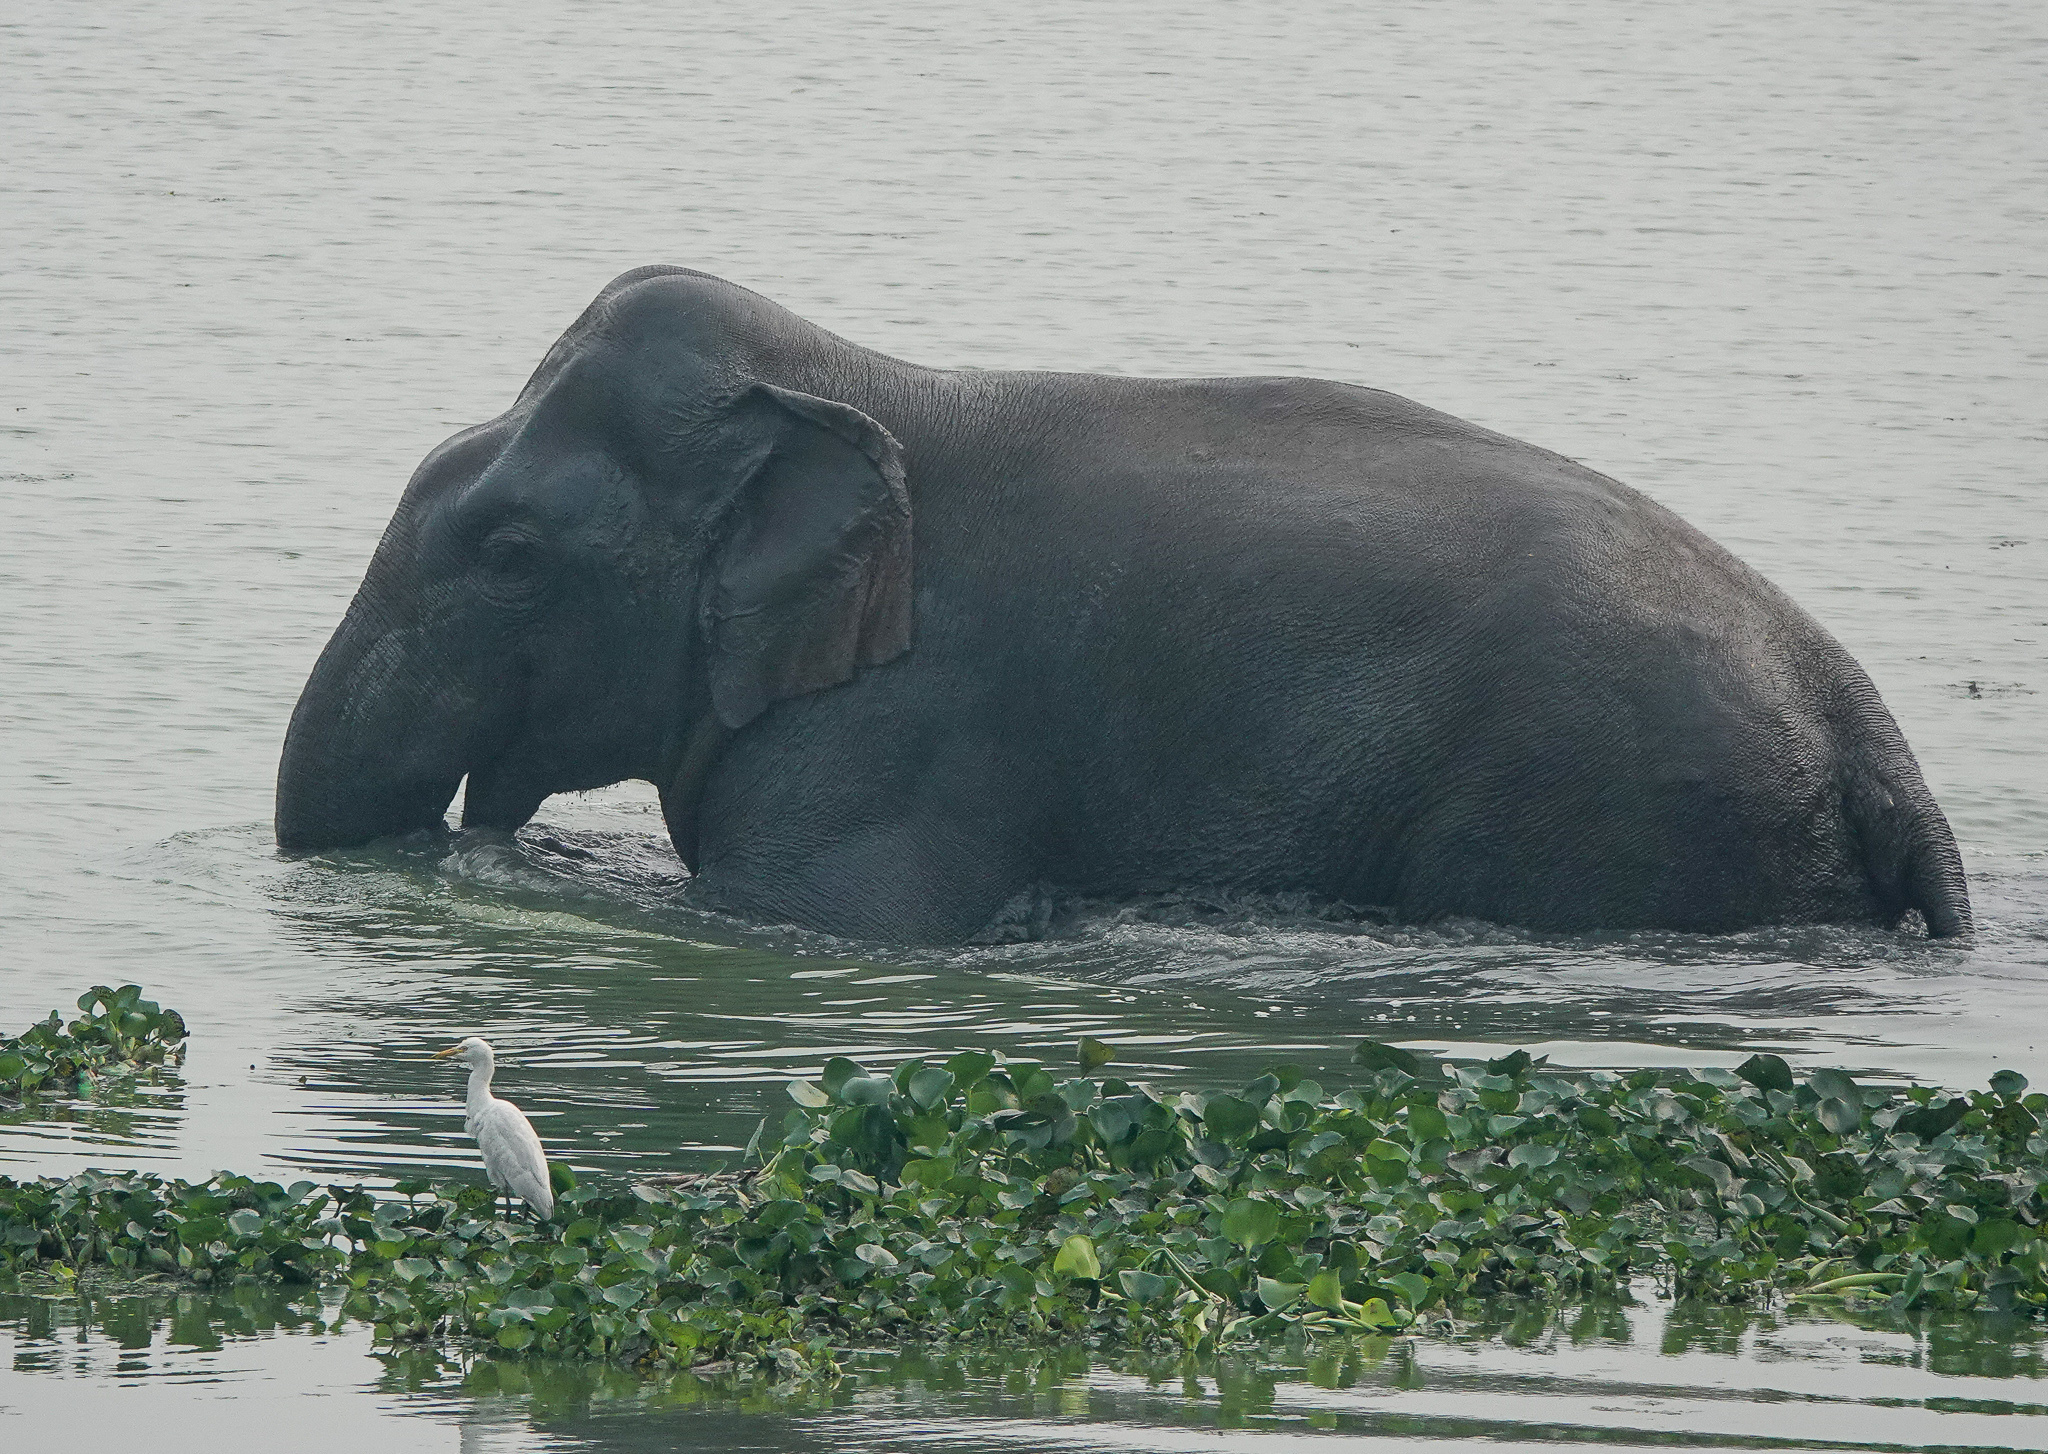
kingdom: Animalia
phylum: Chordata
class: Mammalia
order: Proboscidea
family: Elephantidae
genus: Elephas
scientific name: Elephas maximus
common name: Asian elephant
